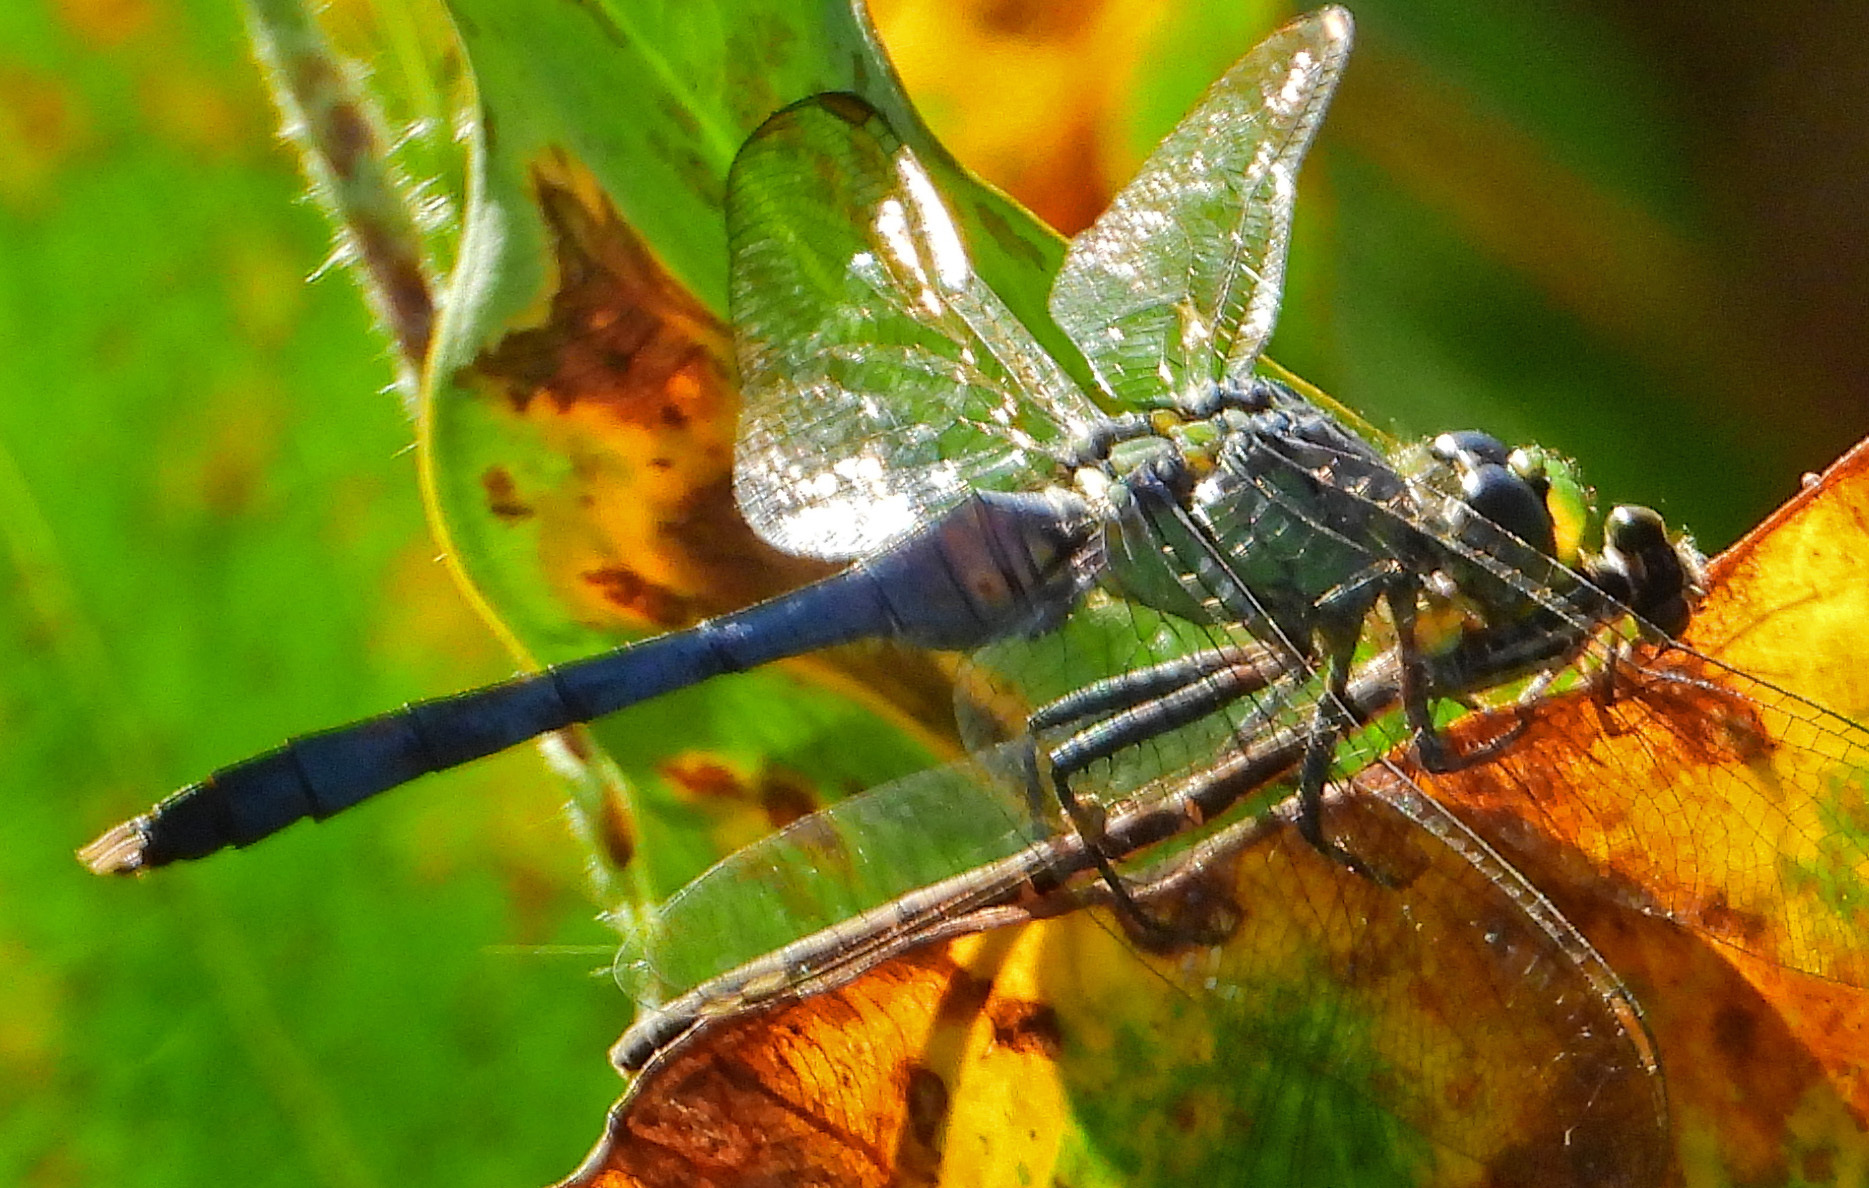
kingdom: Animalia
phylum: Arthropoda
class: Insecta
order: Odonata
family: Libellulidae
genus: Erythemis
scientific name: Erythemis simplicicollis
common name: Eastern pondhawk
